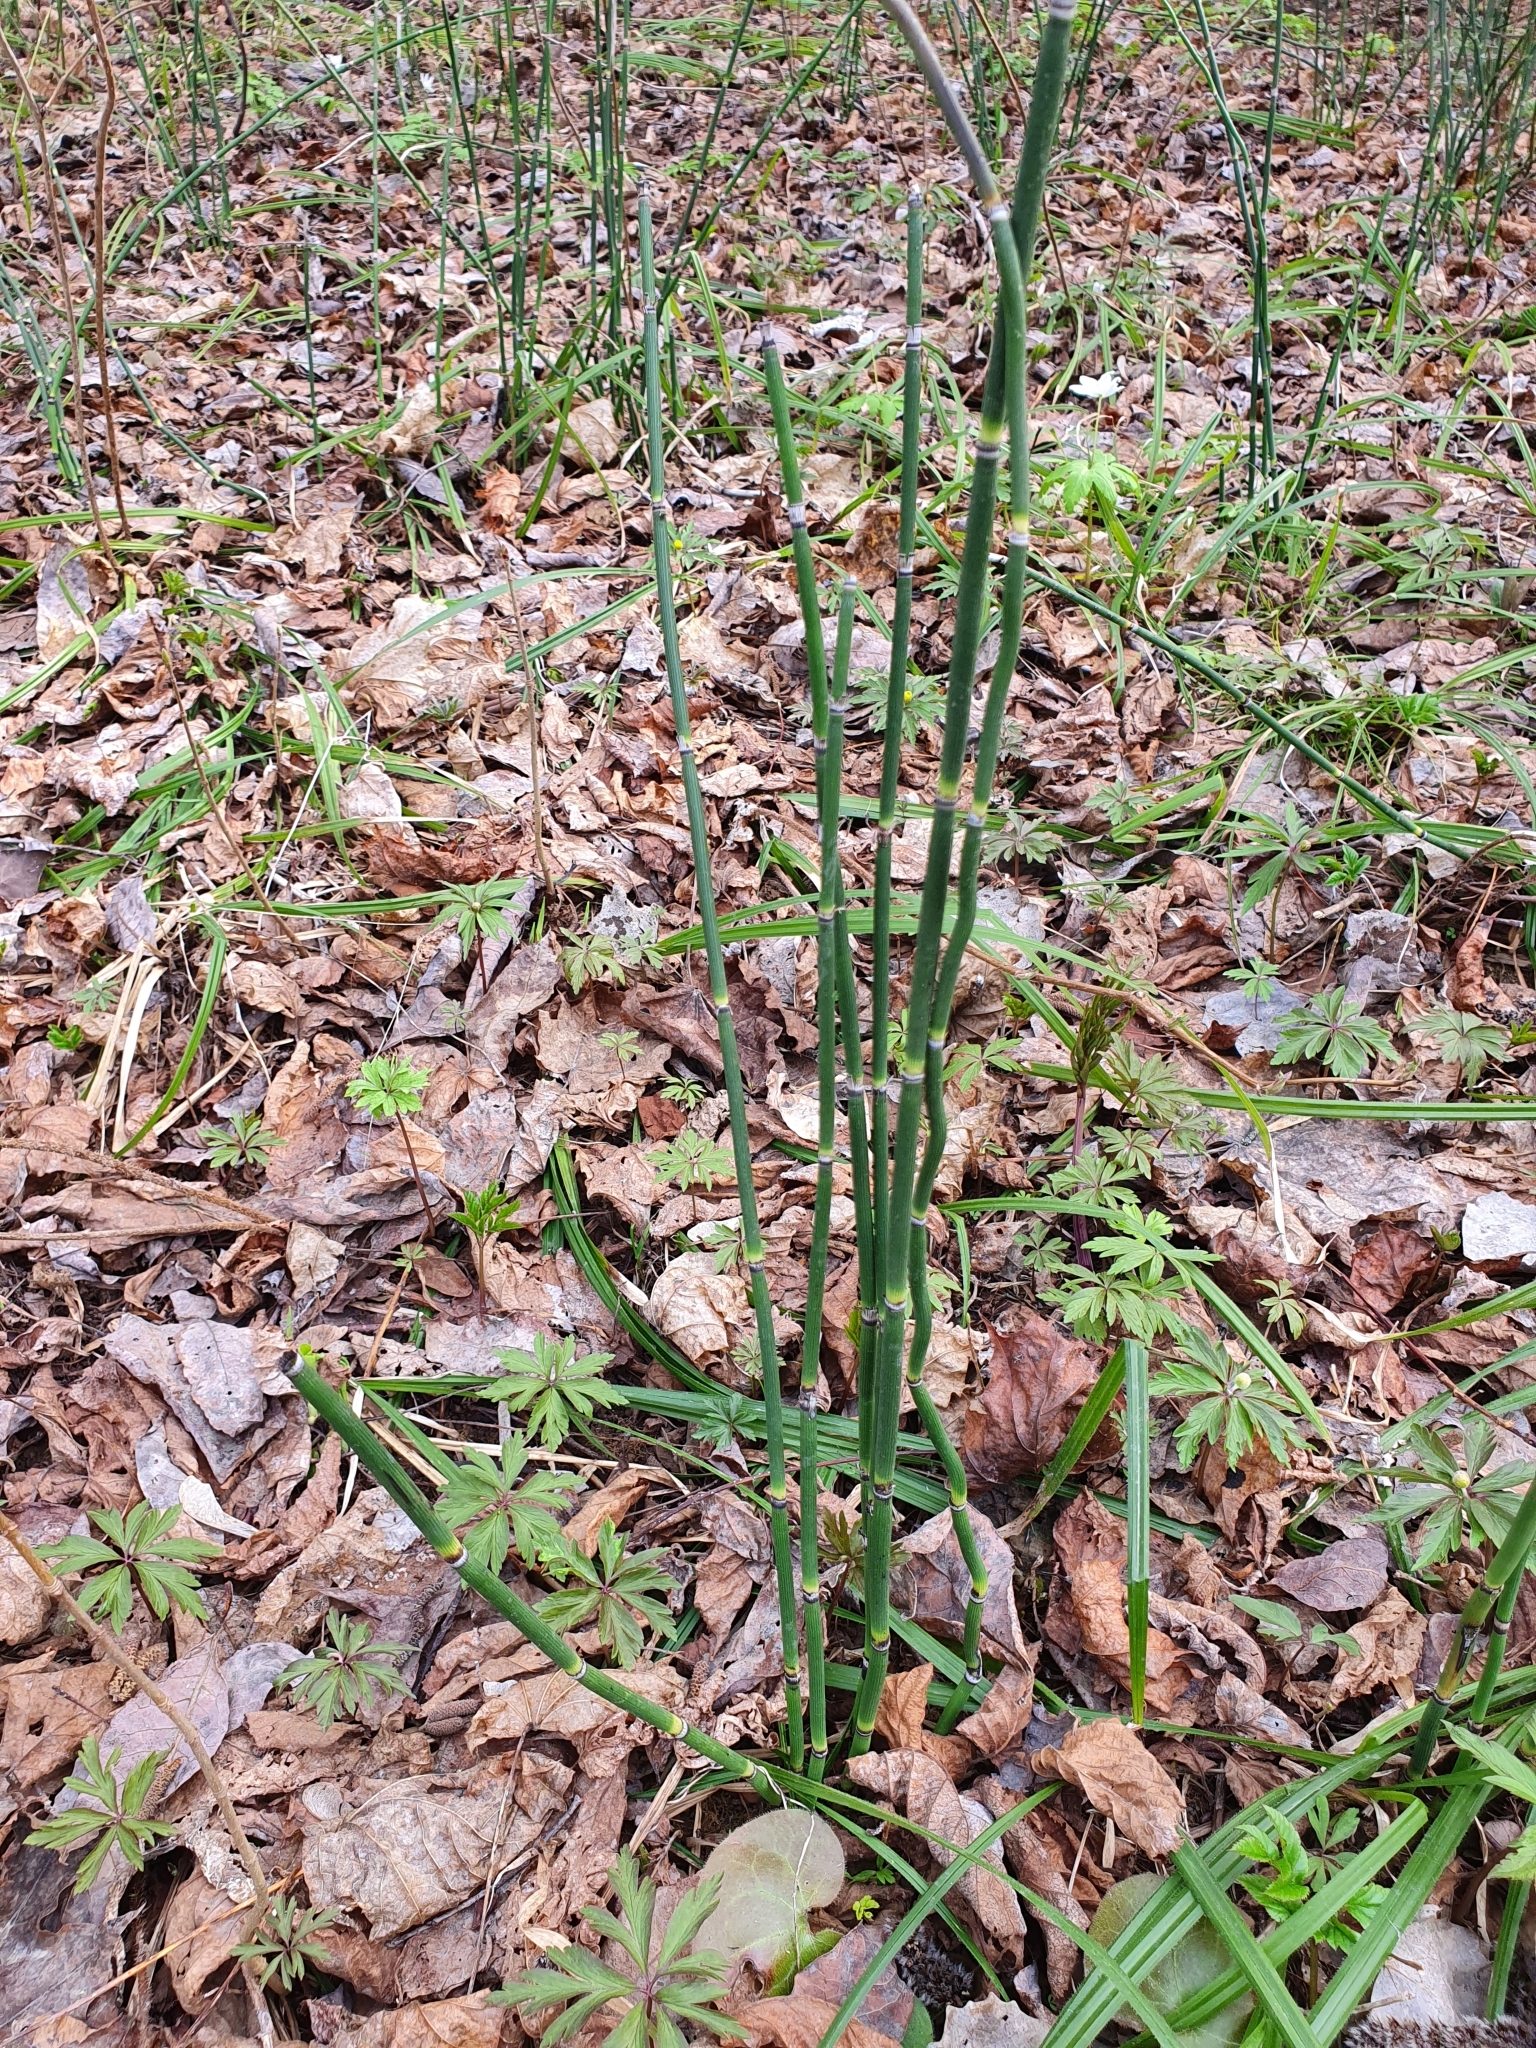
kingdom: Plantae
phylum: Tracheophyta
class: Polypodiopsida
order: Equisetales
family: Equisetaceae
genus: Equisetum
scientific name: Equisetum hyemale
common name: Rough horsetail
